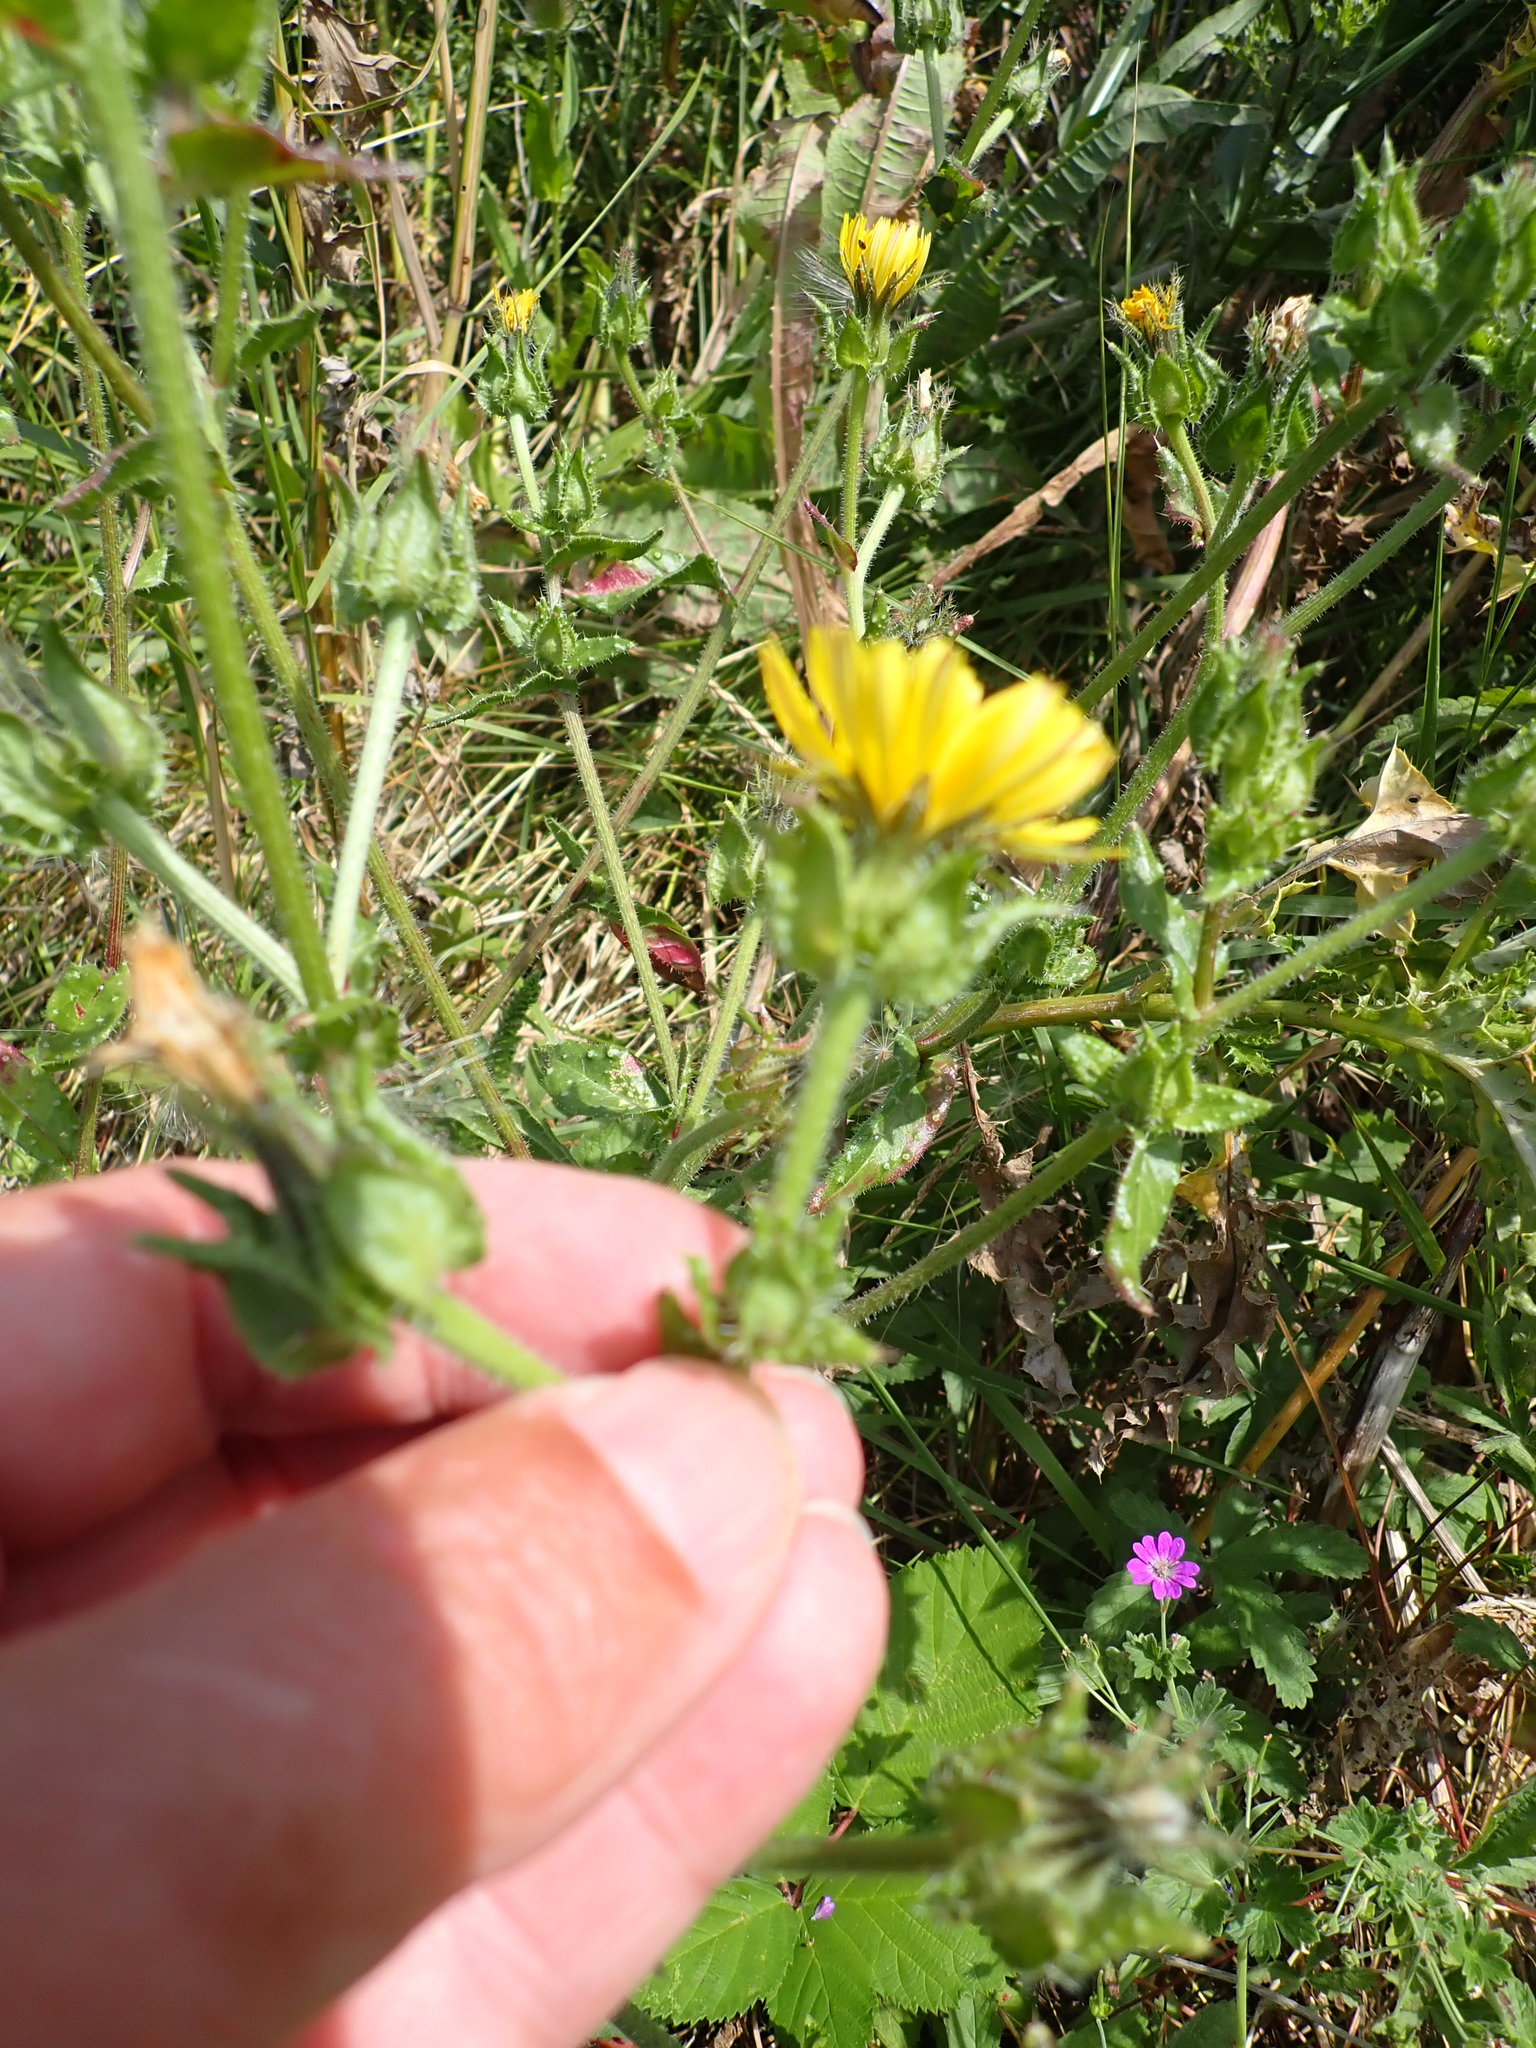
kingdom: Plantae
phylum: Tracheophyta
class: Magnoliopsida
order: Asterales
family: Asteraceae
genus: Helminthotheca
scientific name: Helminthotheca echioides
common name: Ox-tongue
